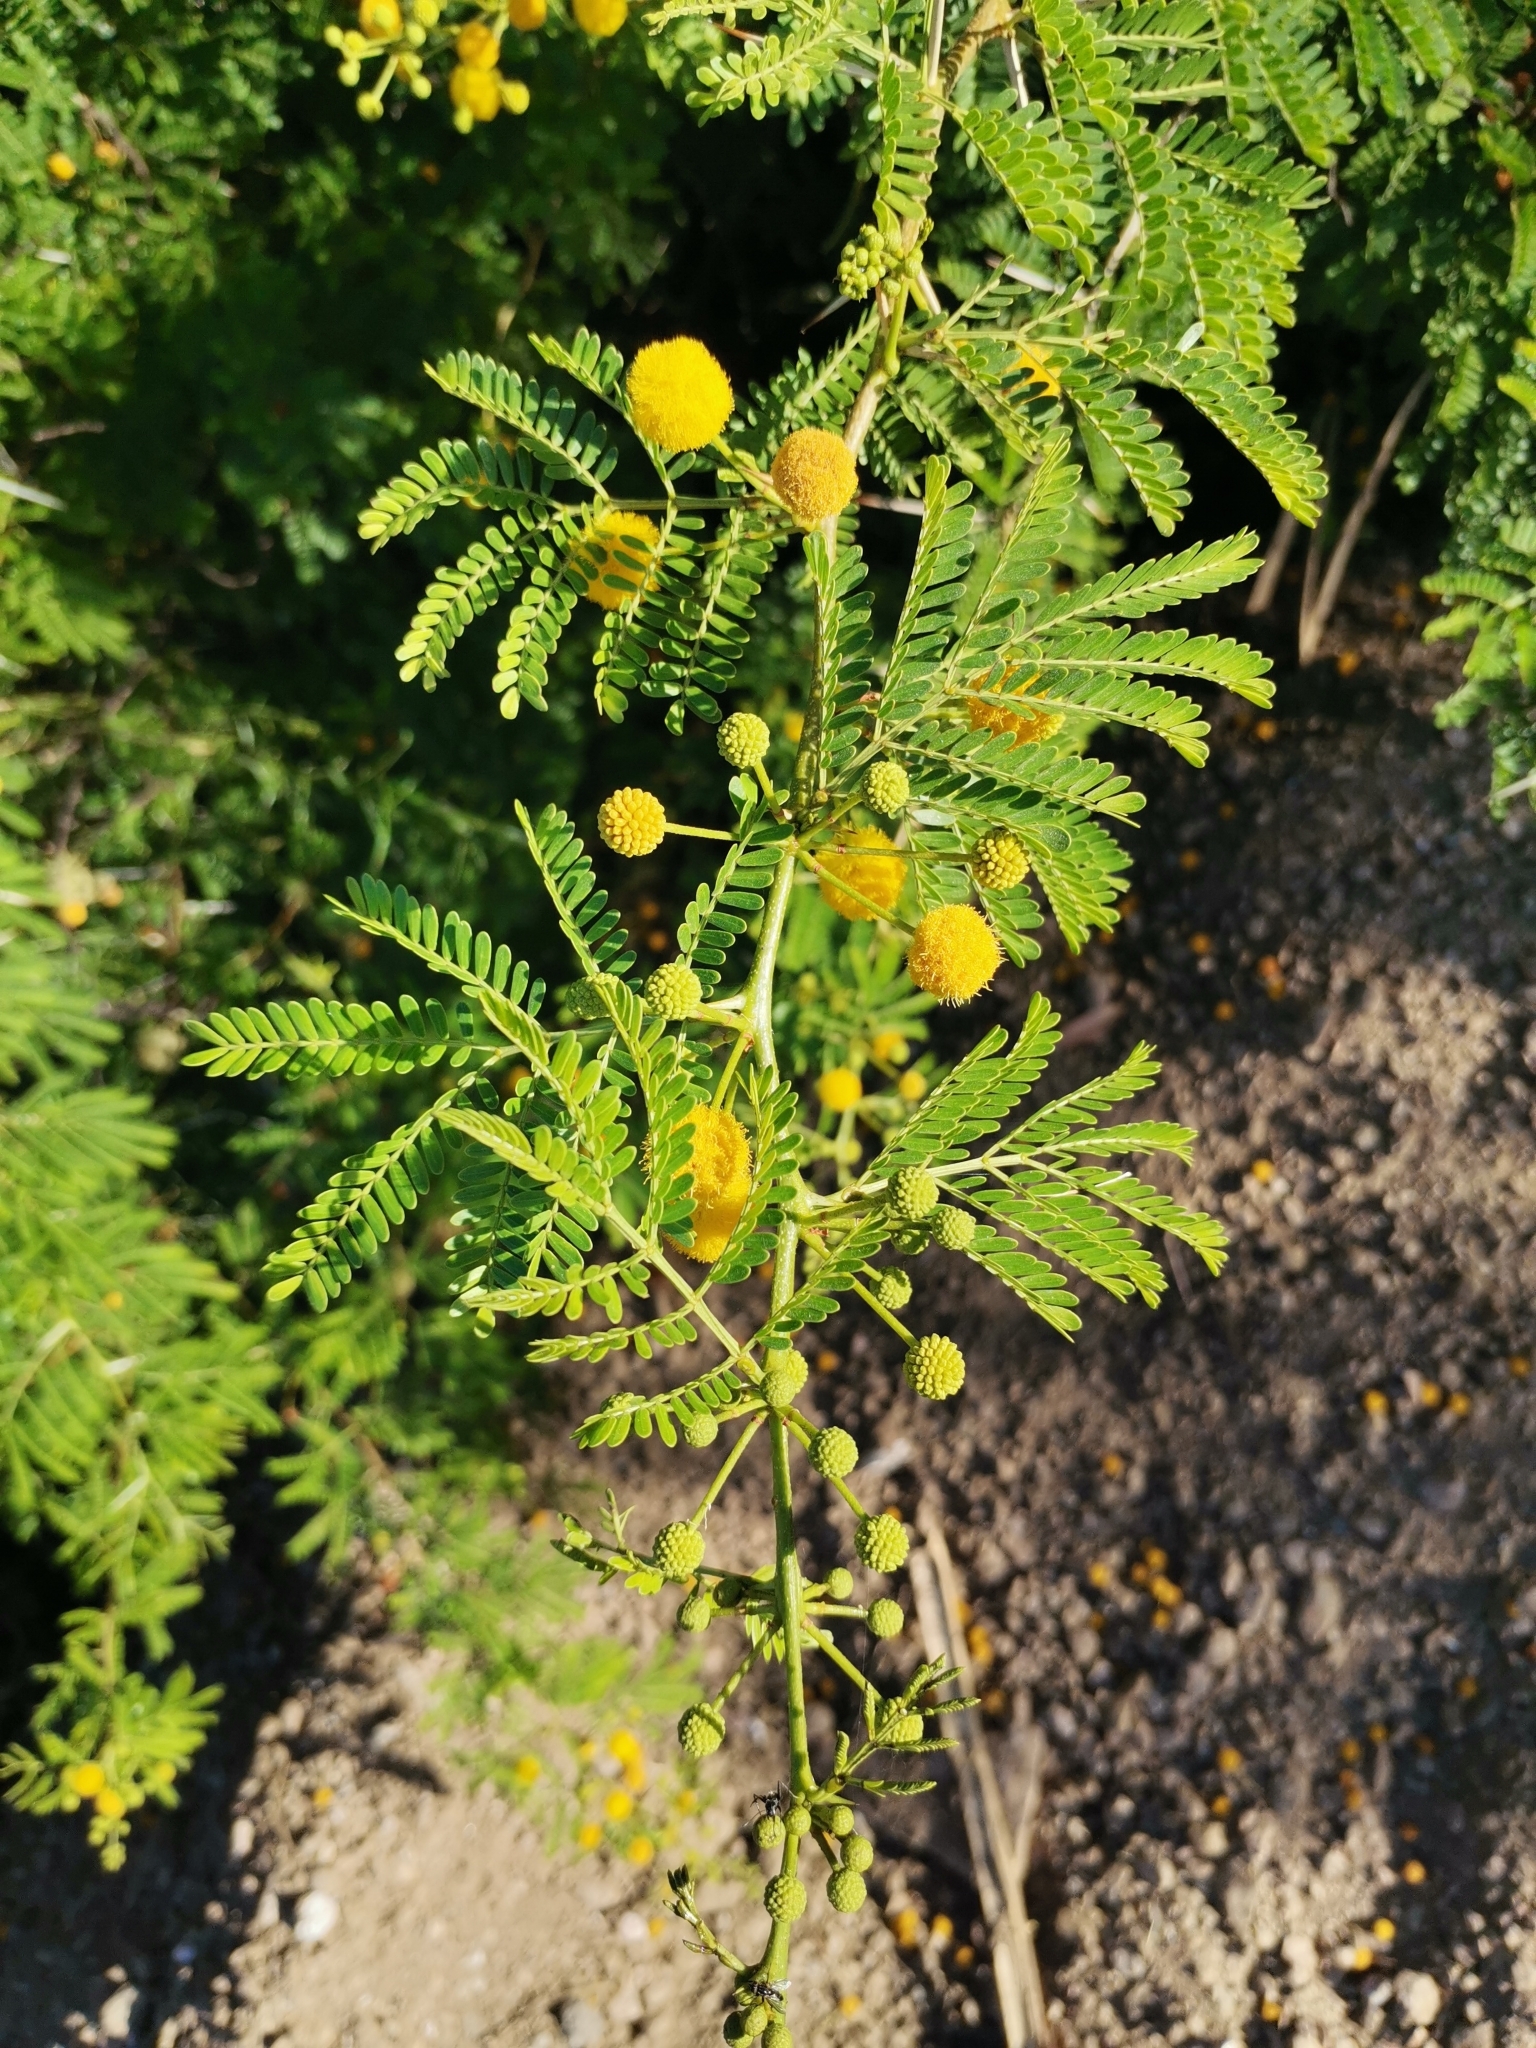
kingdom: Plantae
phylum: Tracheophyta
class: Magnoliopsida
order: Fabales
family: Fabaceae
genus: Vachellia
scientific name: Vachellia karroo
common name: Sweet thorn
